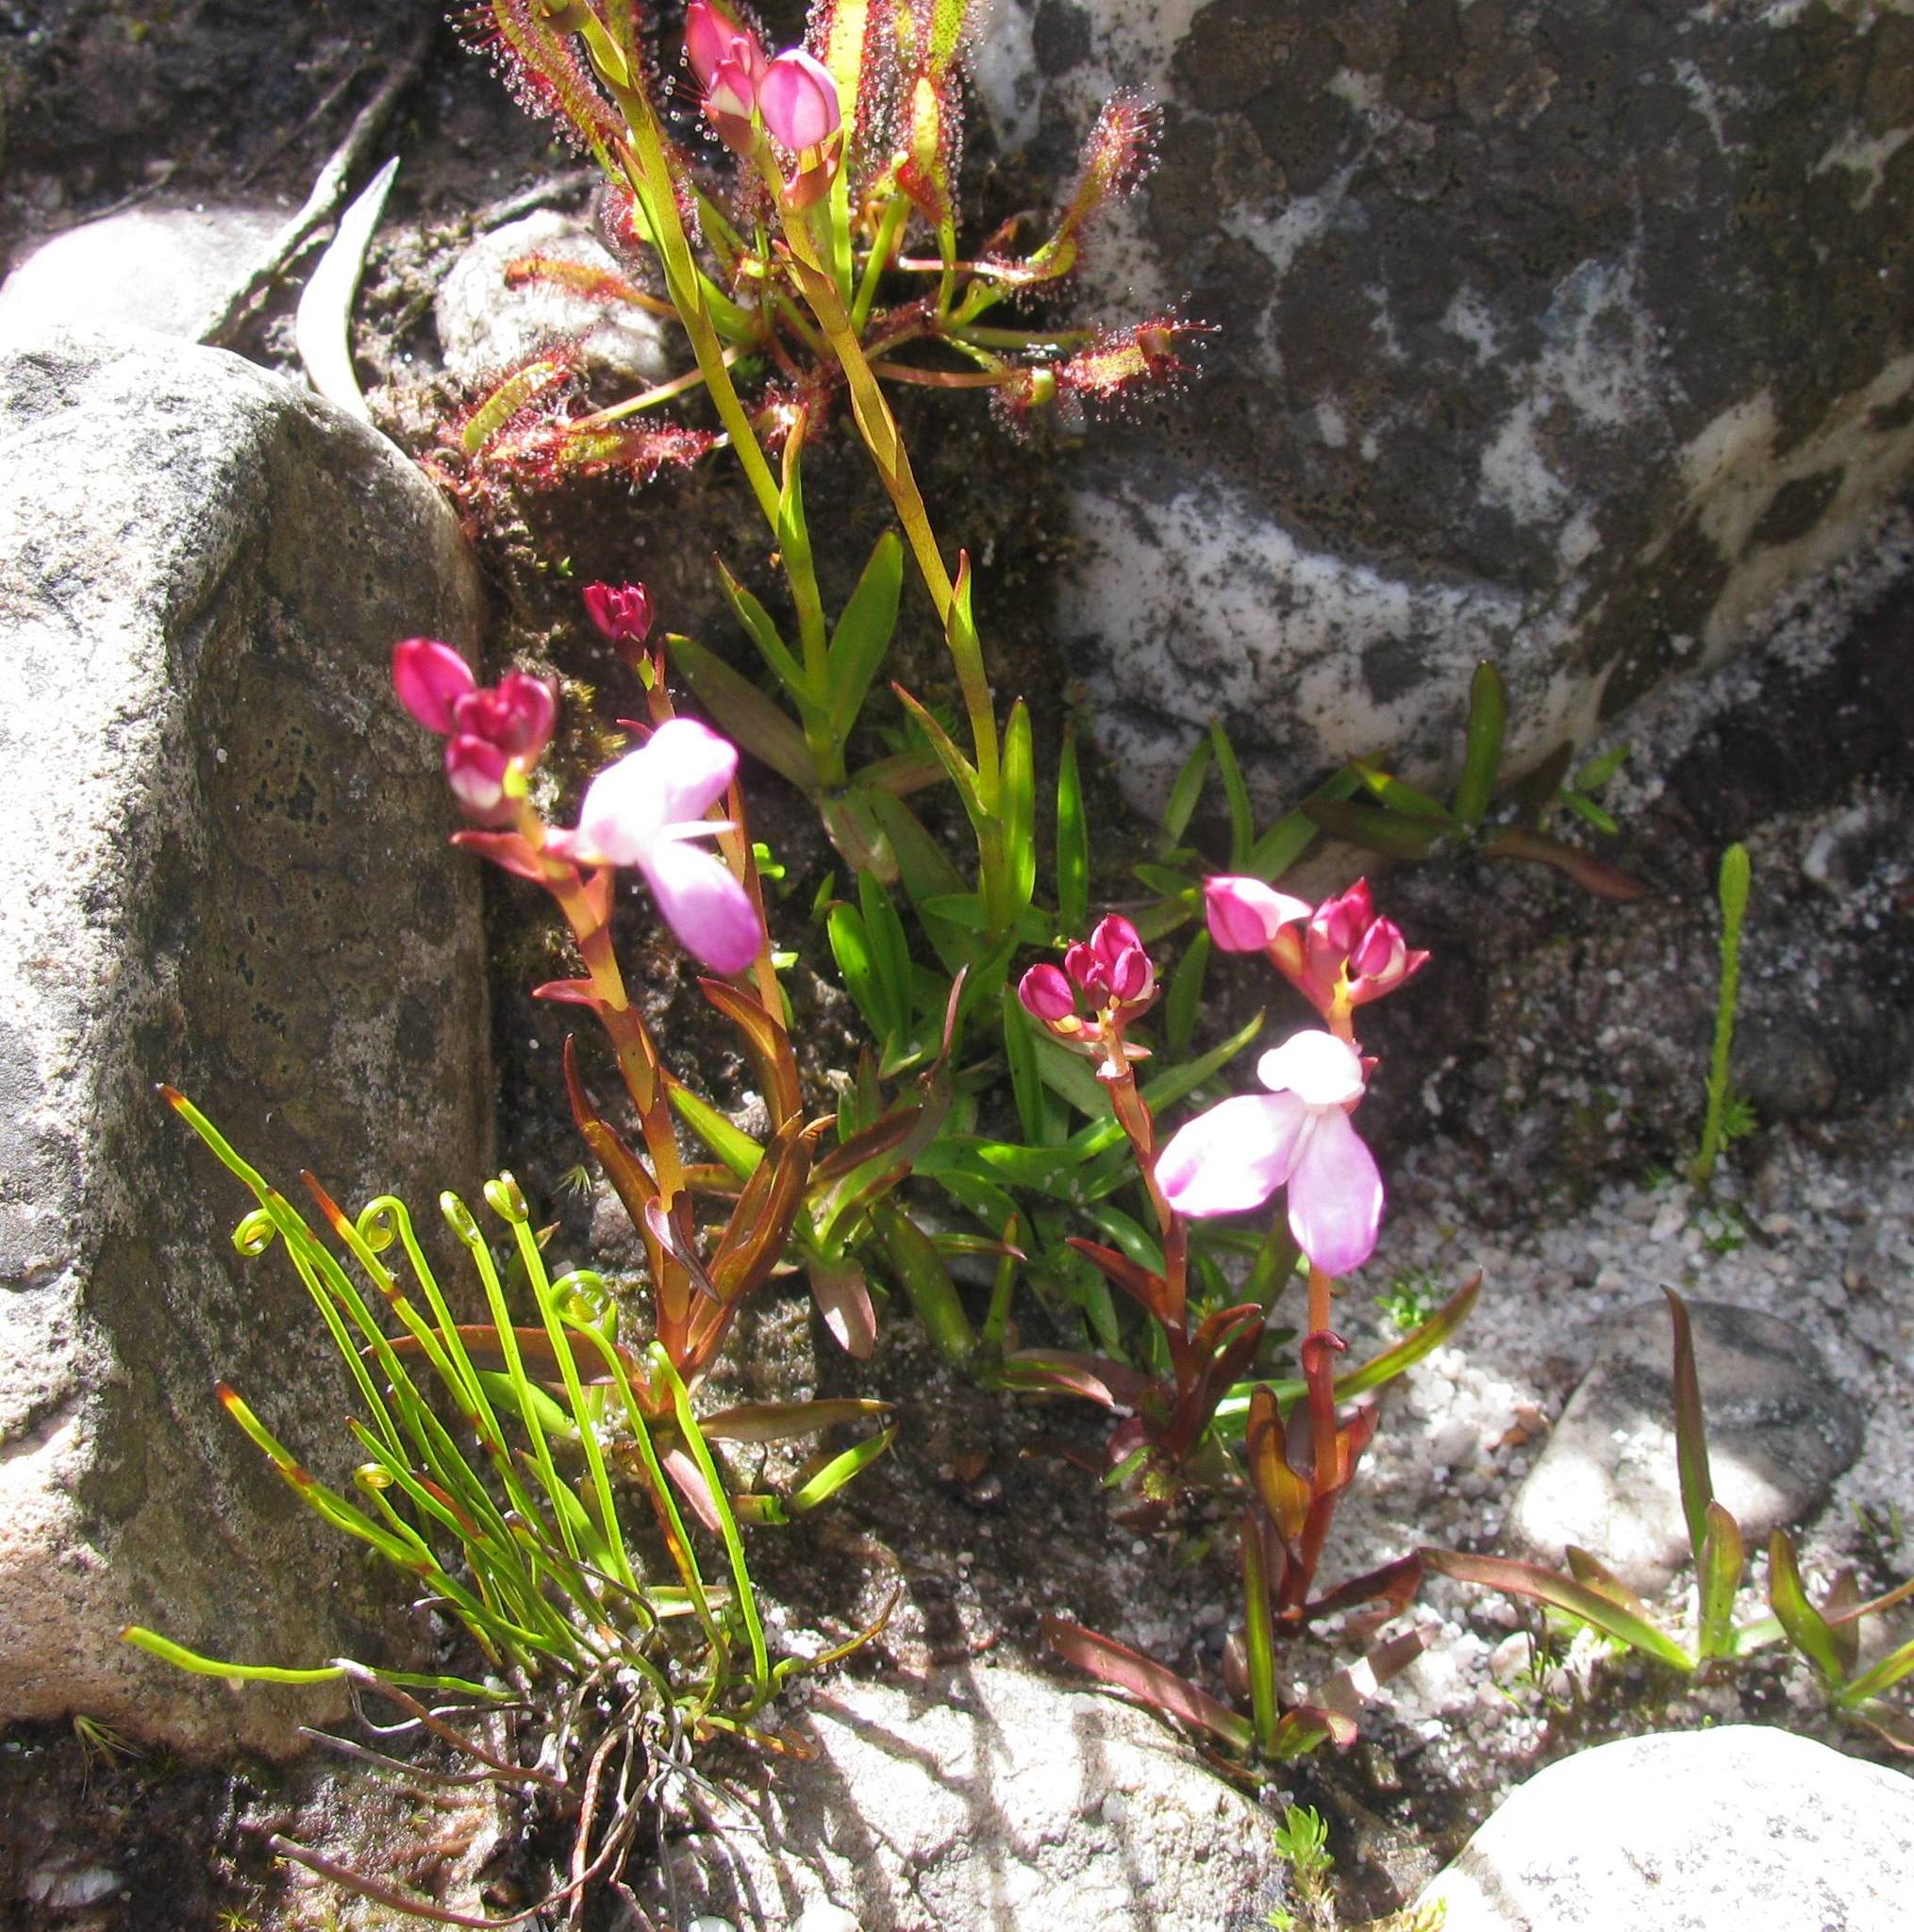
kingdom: Plantae
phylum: Tracheophyta
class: Liliopsida
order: Asparagales
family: Orchidaceae
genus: Disa
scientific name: Disa caulescens
